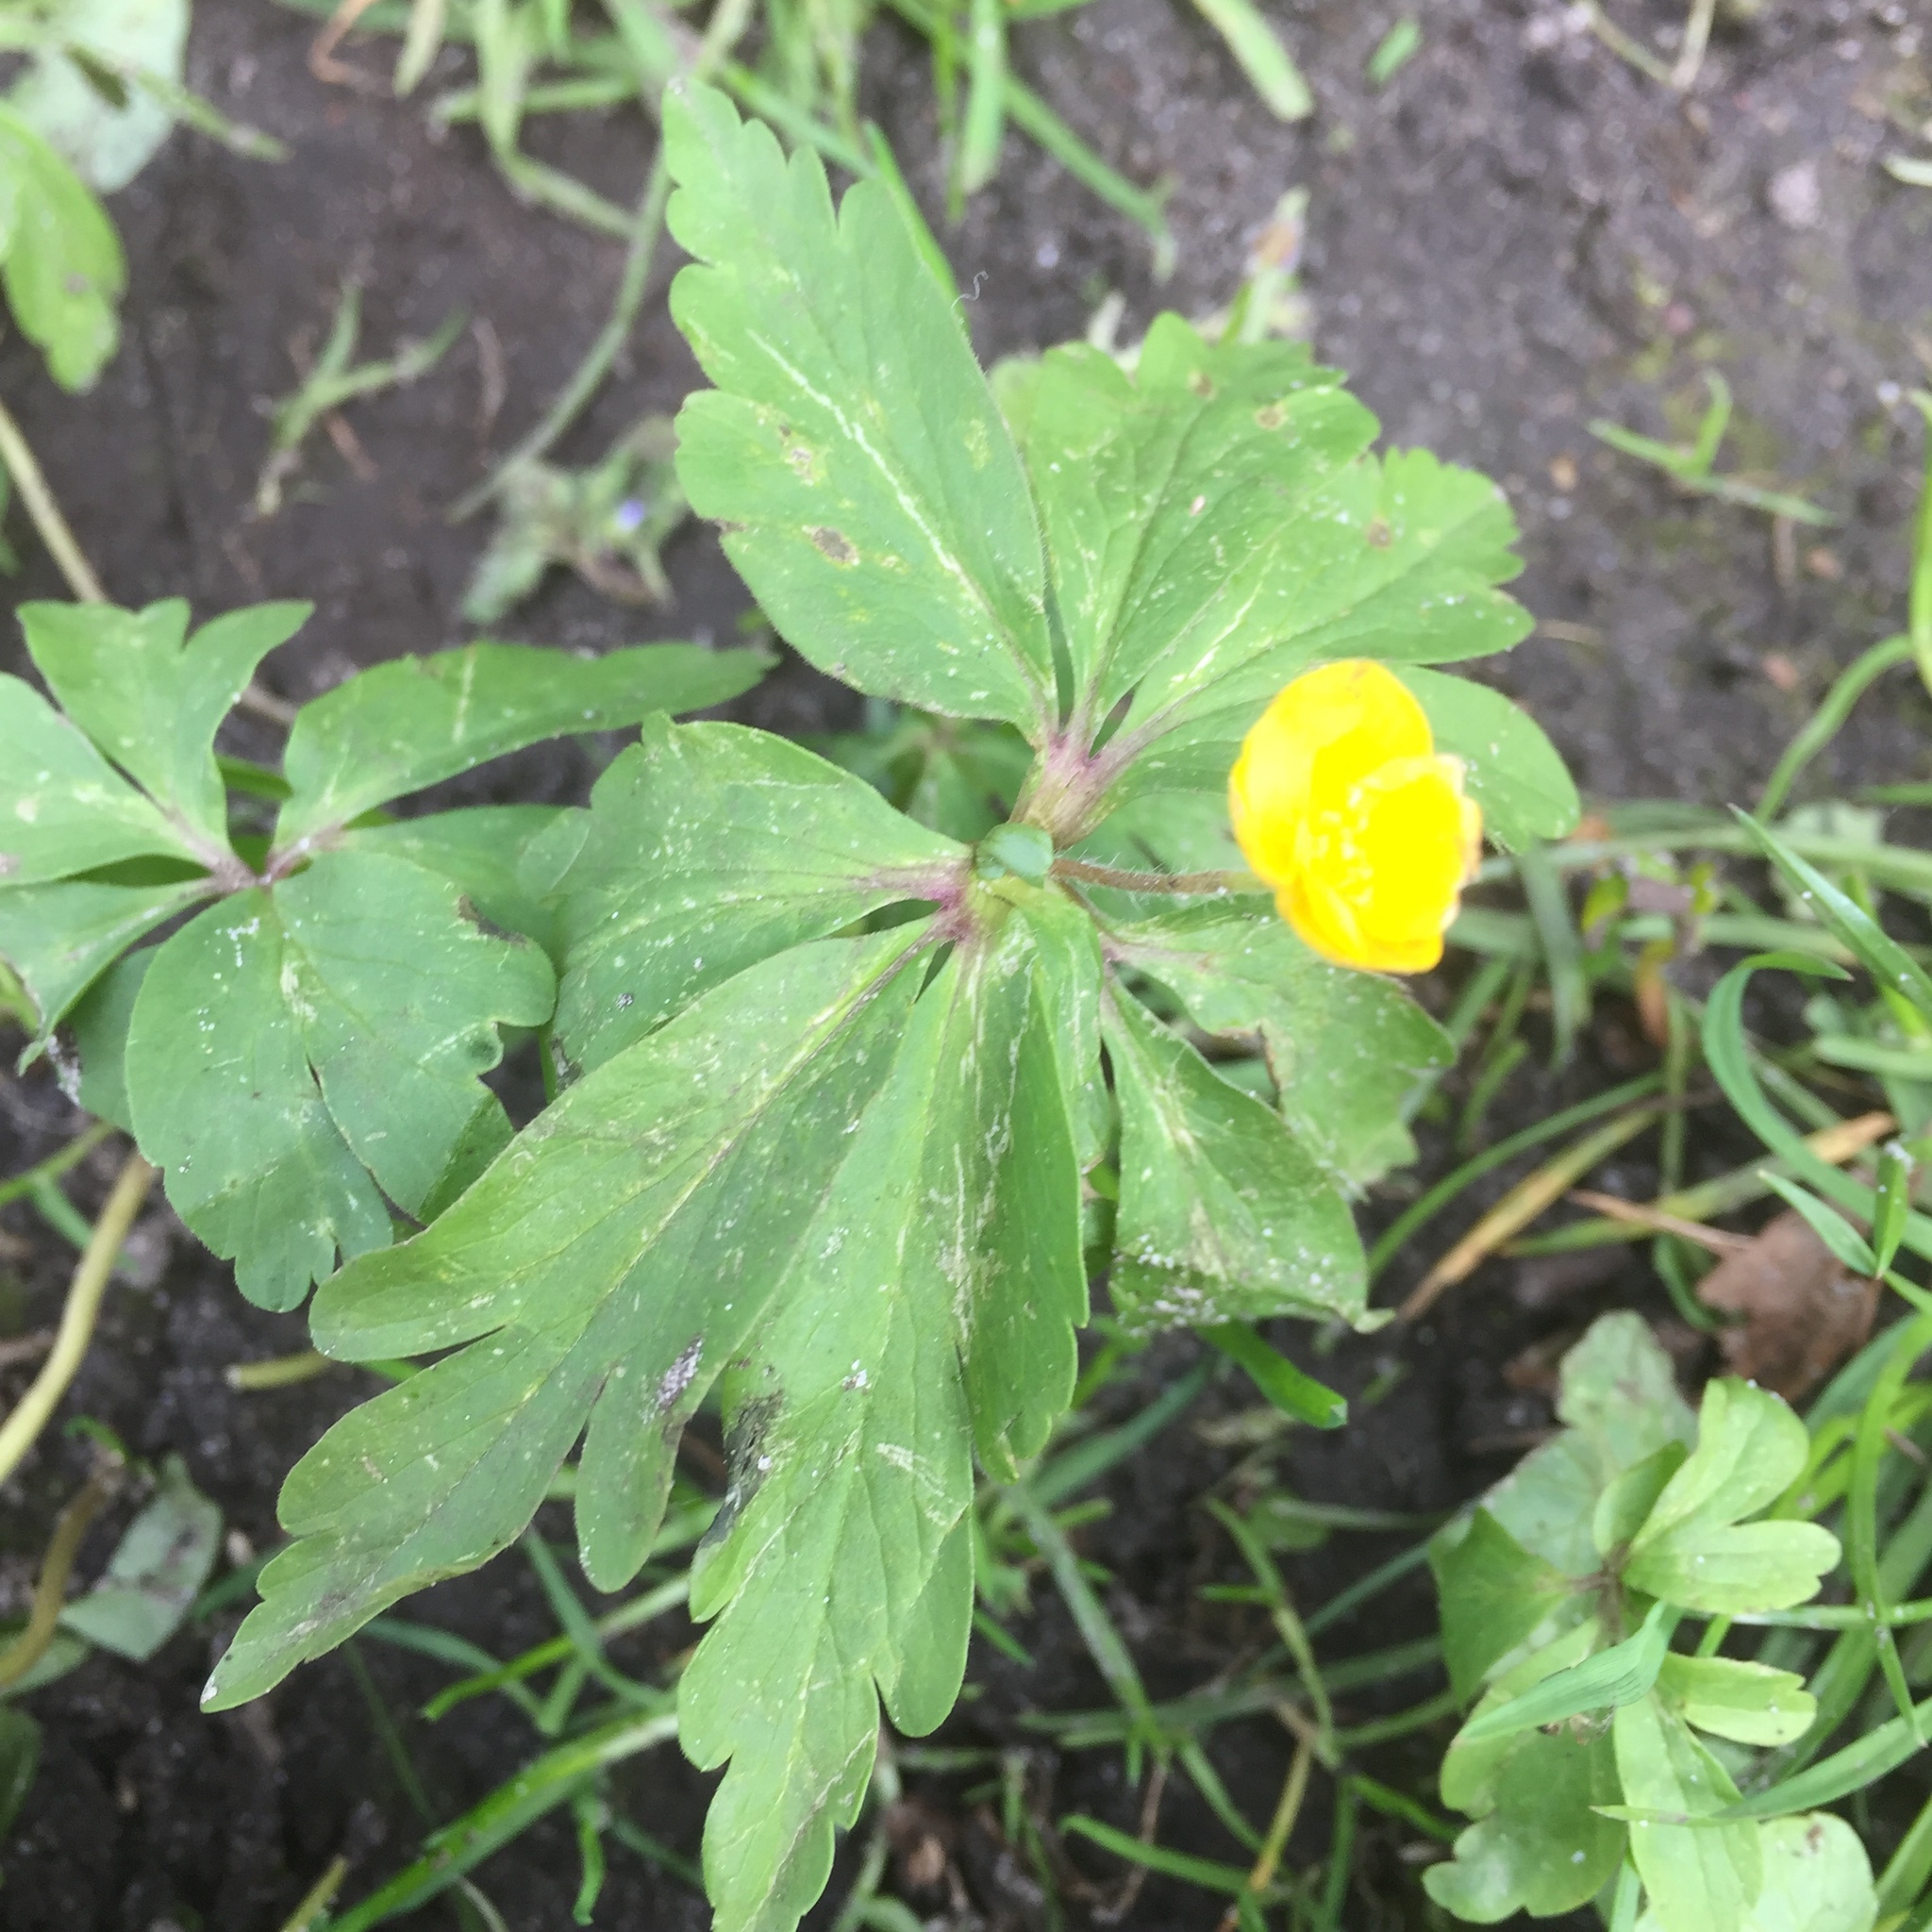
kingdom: Plantae
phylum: Tracheophyta
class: Magnoliopsida
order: Ranunculales
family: Ranunculaceae
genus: Anemone
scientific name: Anemone ranunculoides
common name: Yellow anemone
